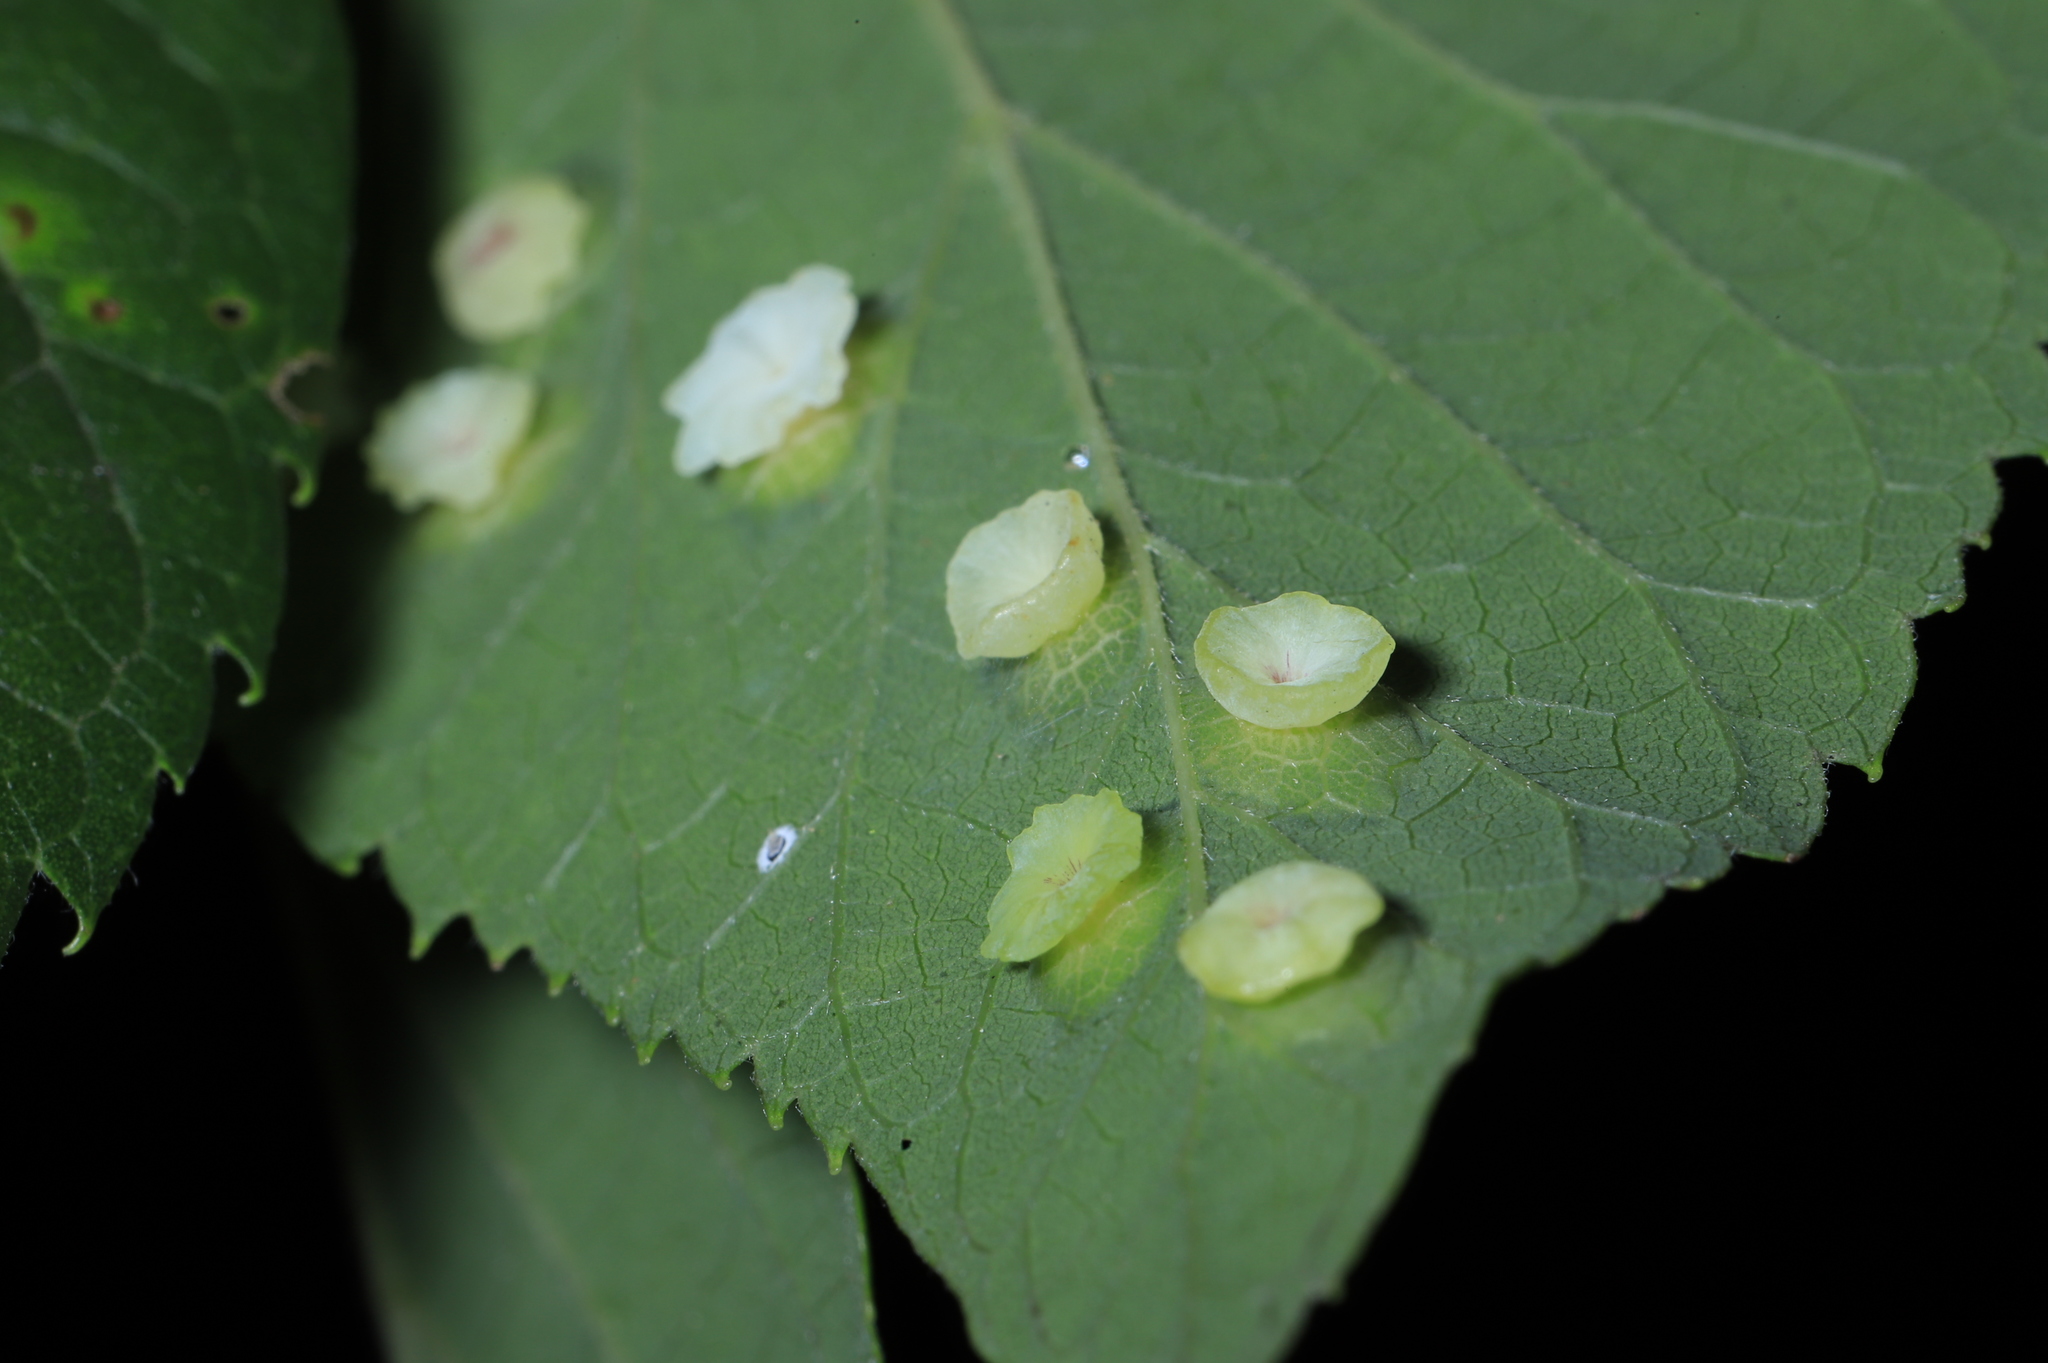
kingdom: Animalia
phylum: Arthropoda
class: Insecta
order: Hemiptera
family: Aphalaridae
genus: Pachypsylla
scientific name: Pachypsylla celtidisasterisca
